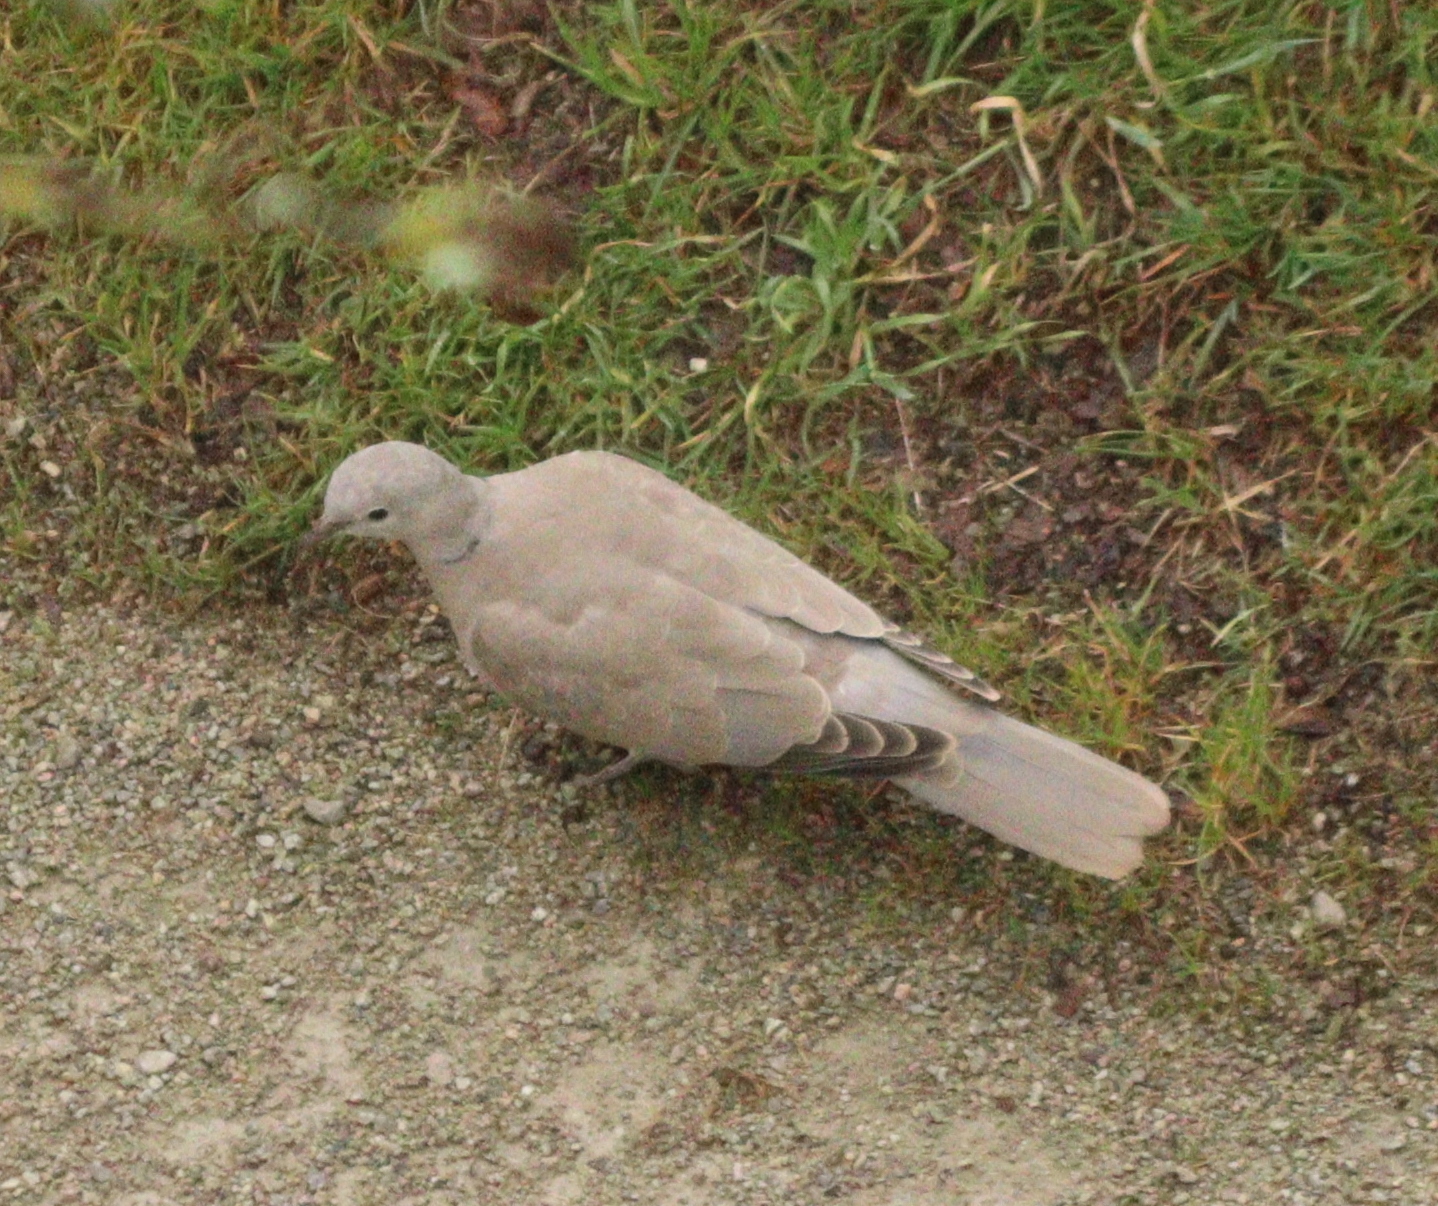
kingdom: Animalia
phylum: Chordata
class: Aves
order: Columbiformes
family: Columbidae
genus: Streptopelia
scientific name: Streptopelia decaocto
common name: Eurasian collared dove
